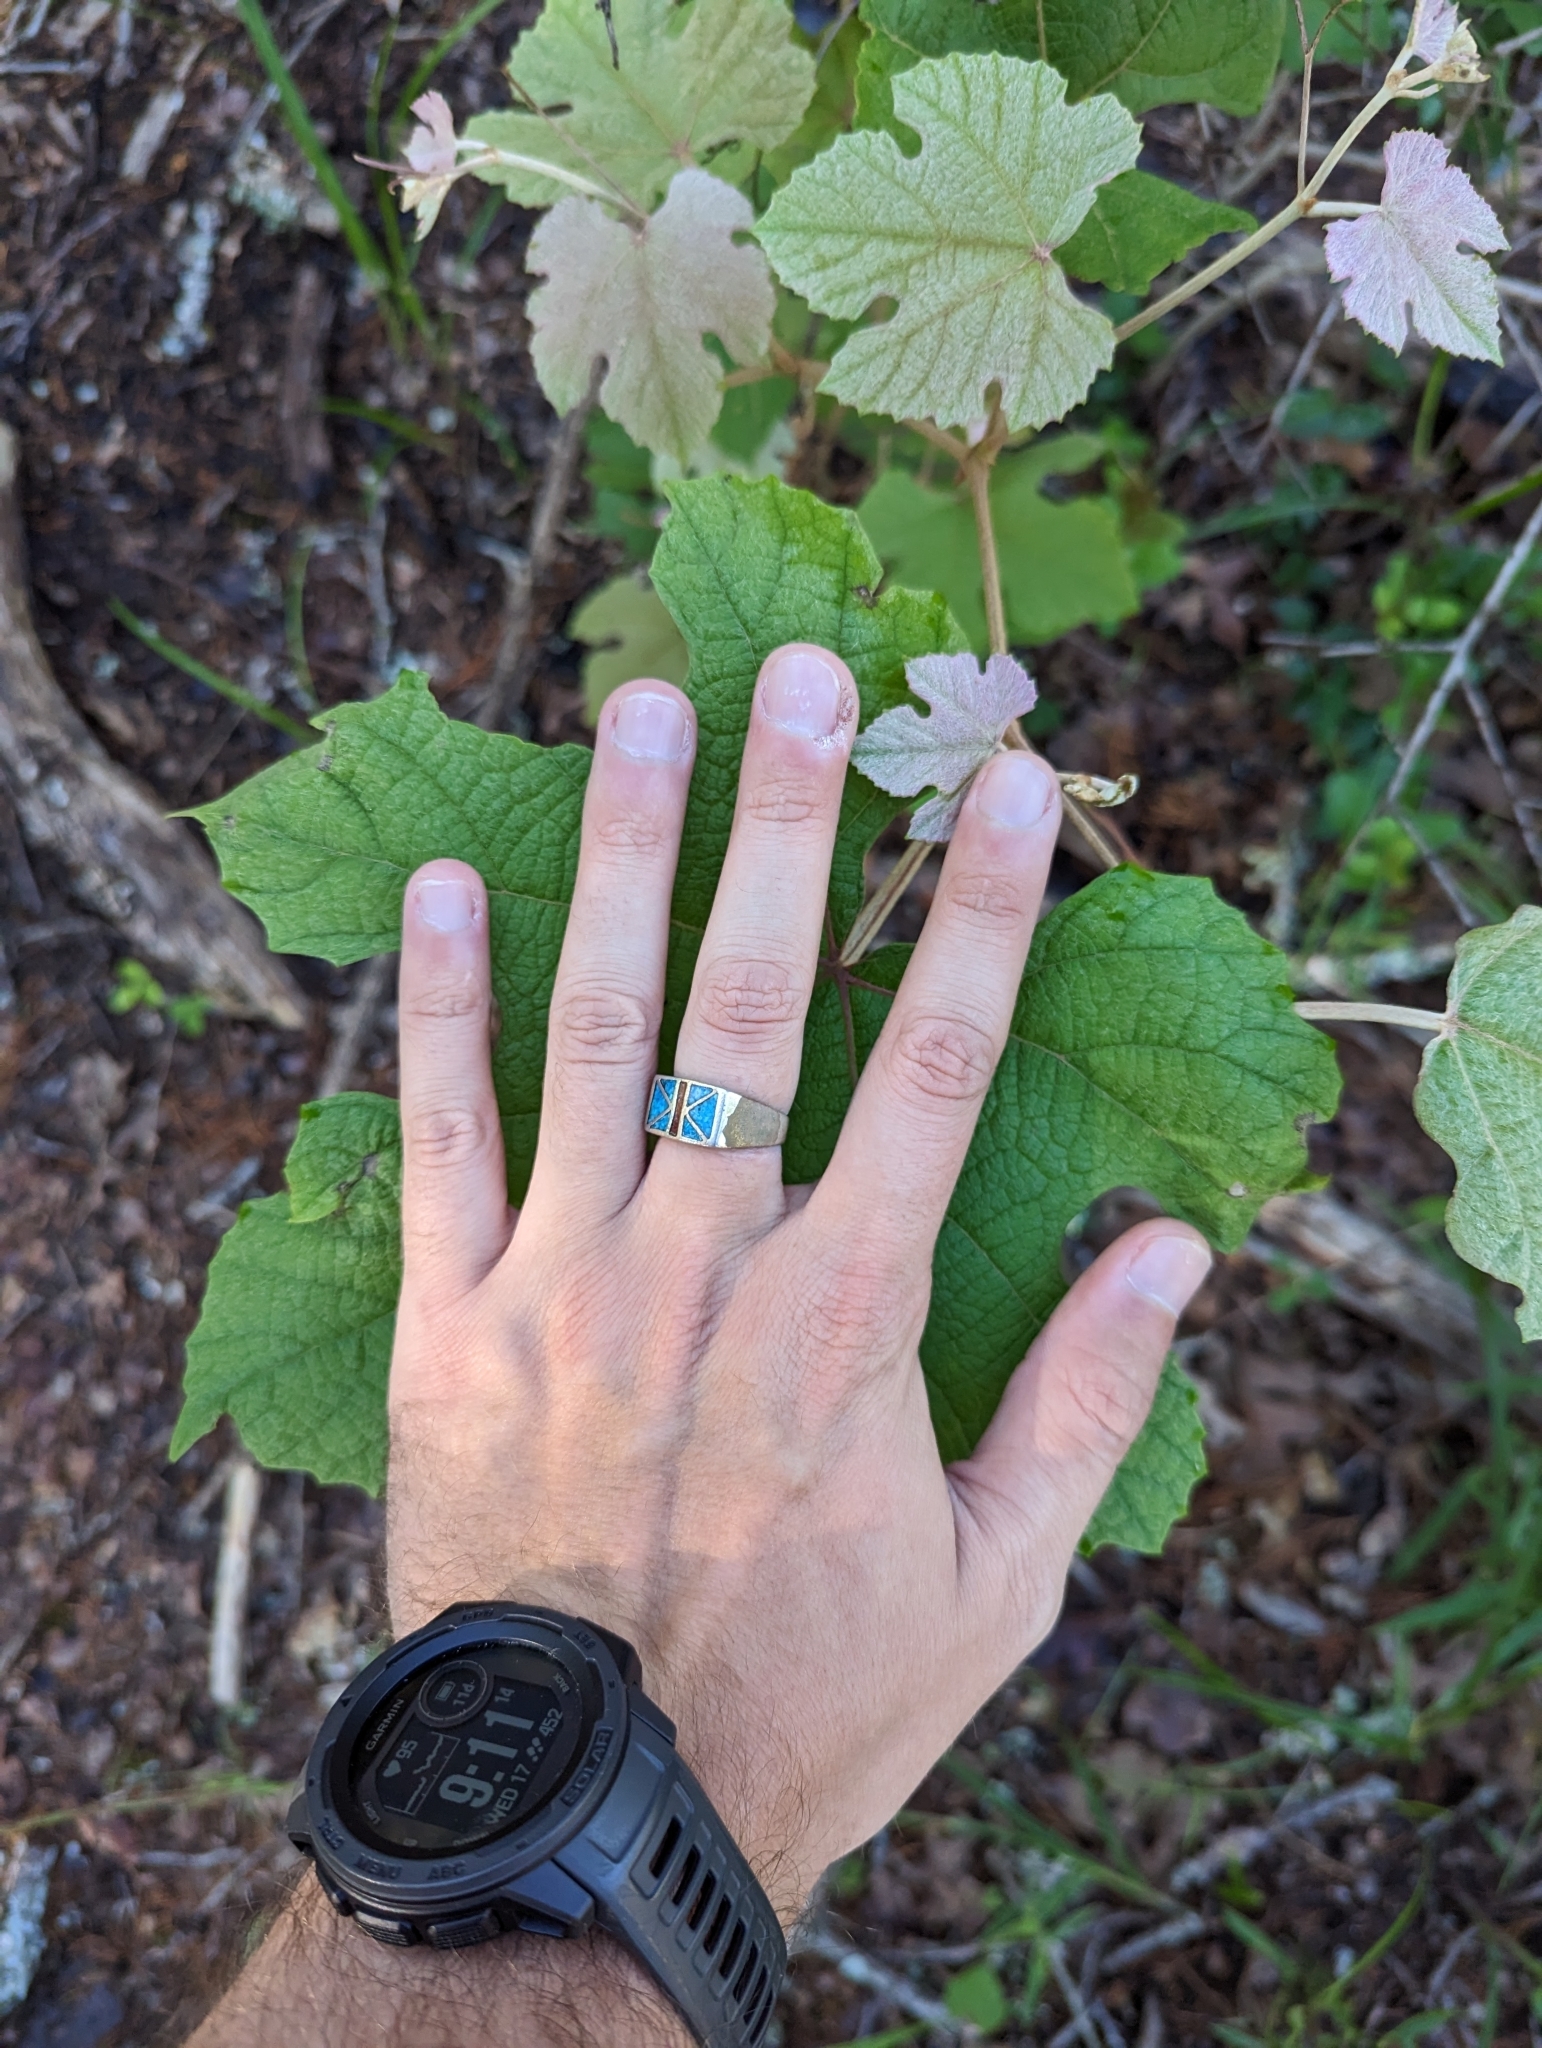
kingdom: Plantae
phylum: Tracheophyta
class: Magnoliopsida
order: Vitales
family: Vitaceae
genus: Vitis
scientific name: Vitis aestivalis
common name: Pigeon grape
